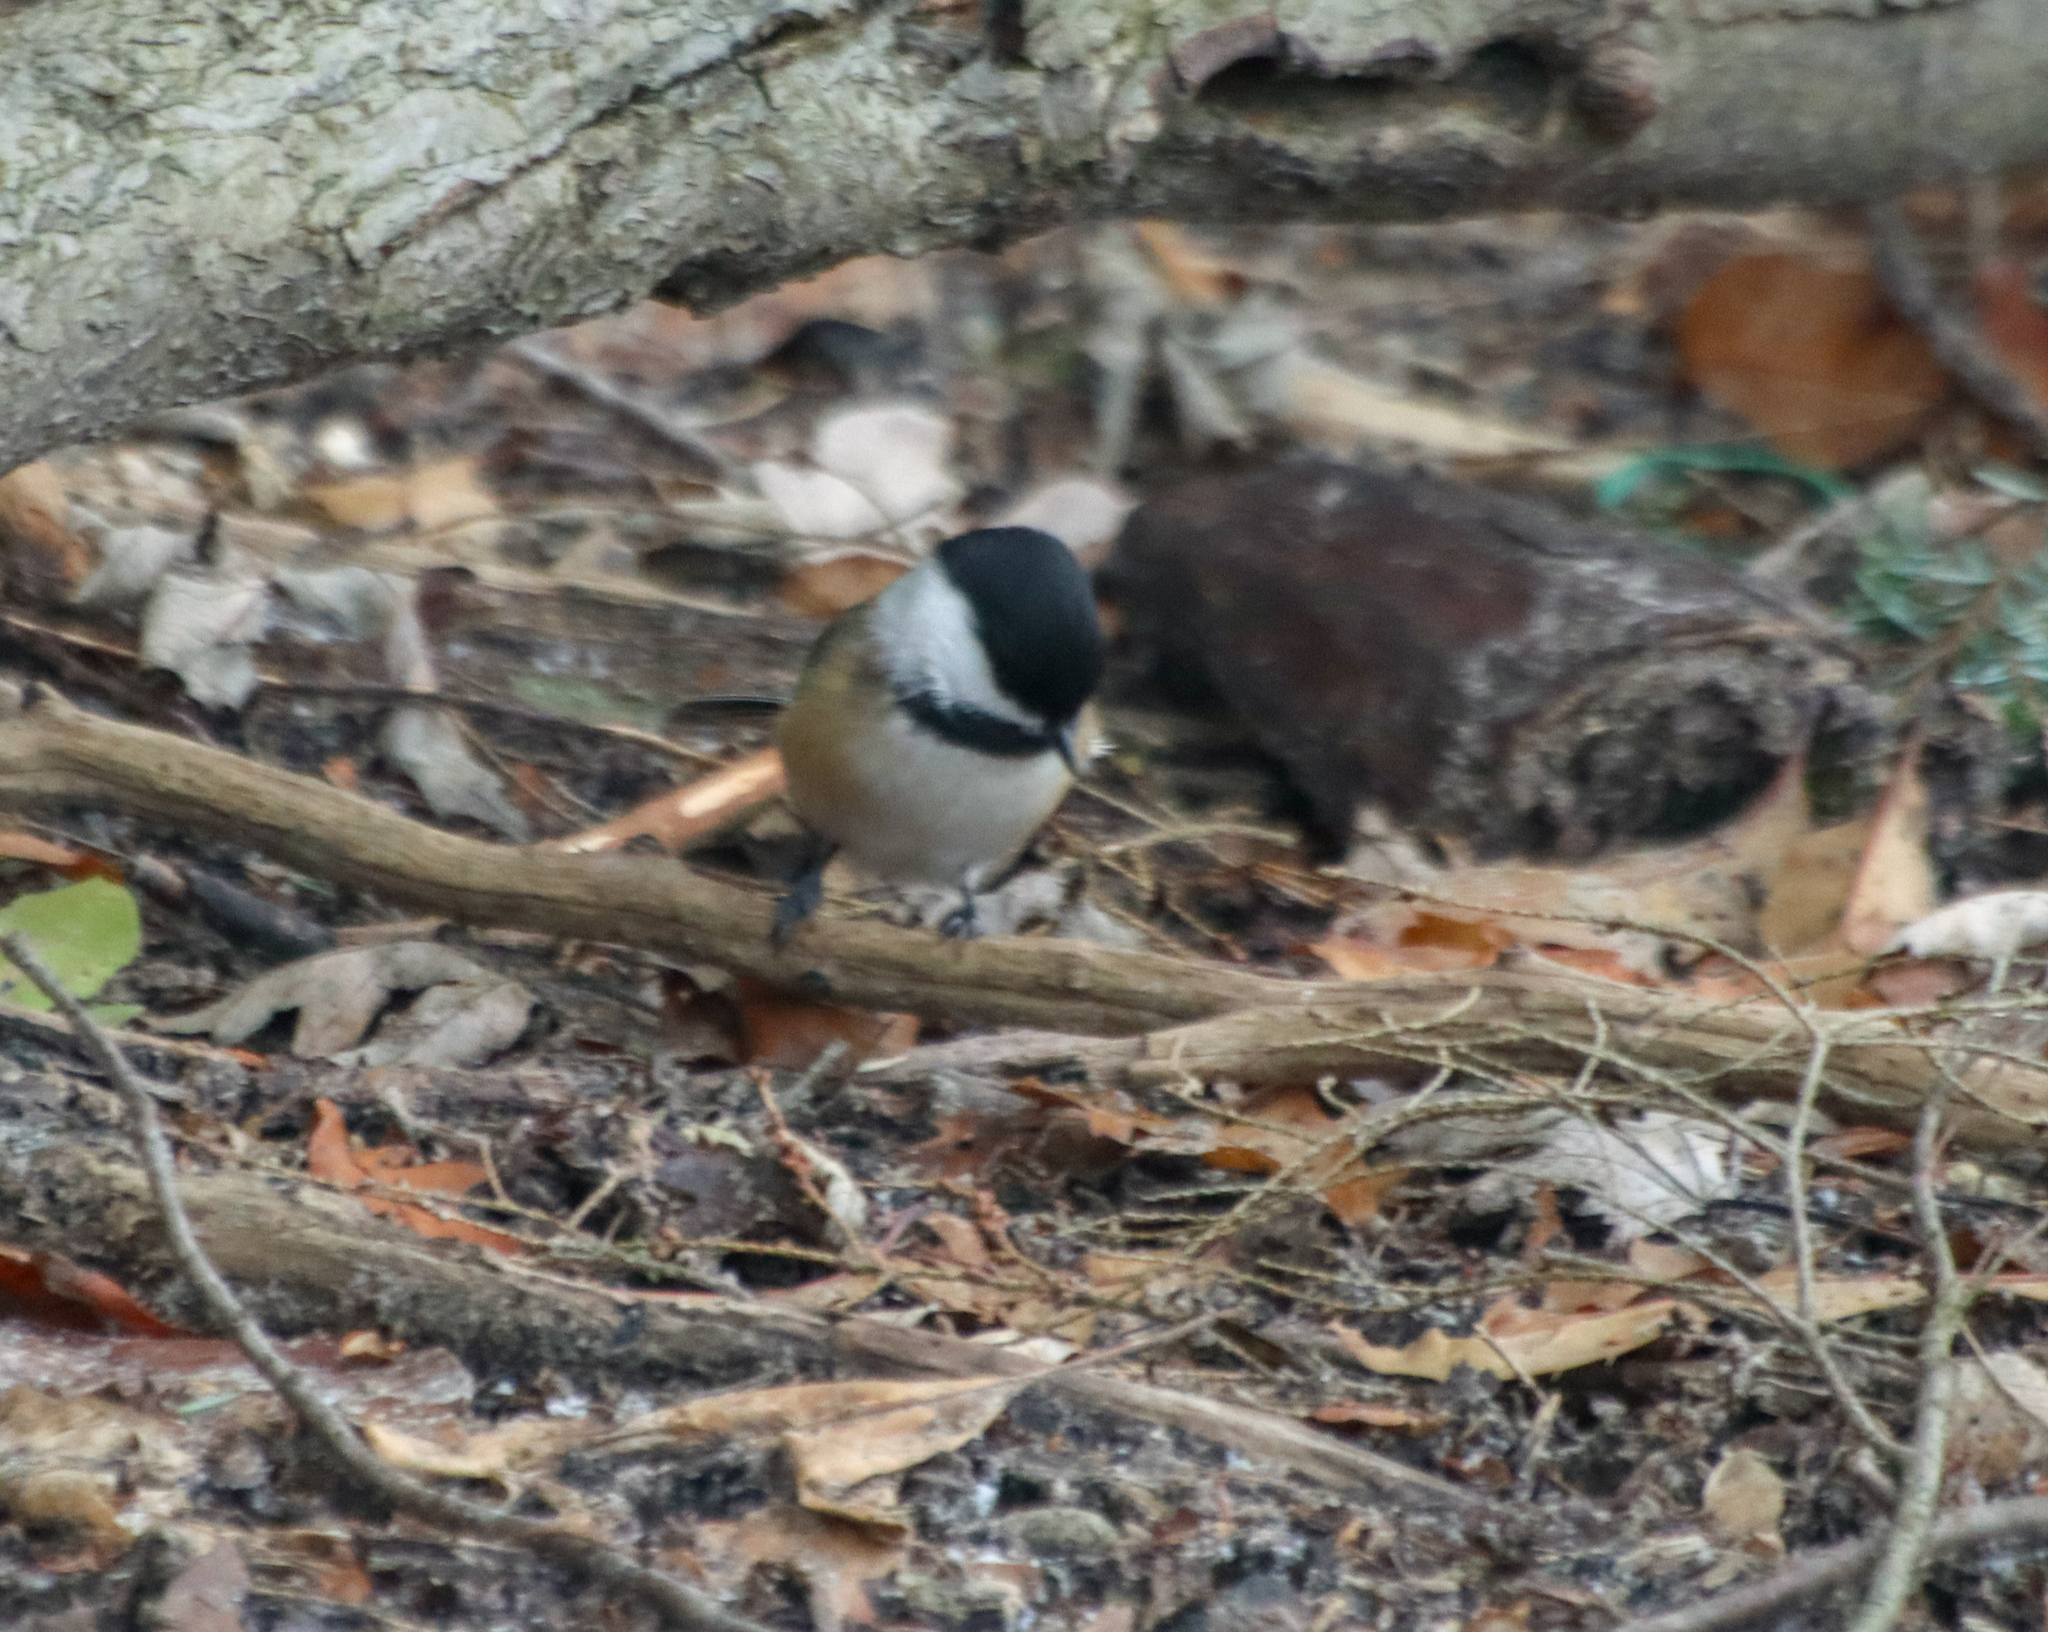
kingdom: Animalia
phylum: Chordata
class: Aves
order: Passeriformes
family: Paridae
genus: Poecile
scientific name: Poecile atricapillus
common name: Black-capped chickadee
